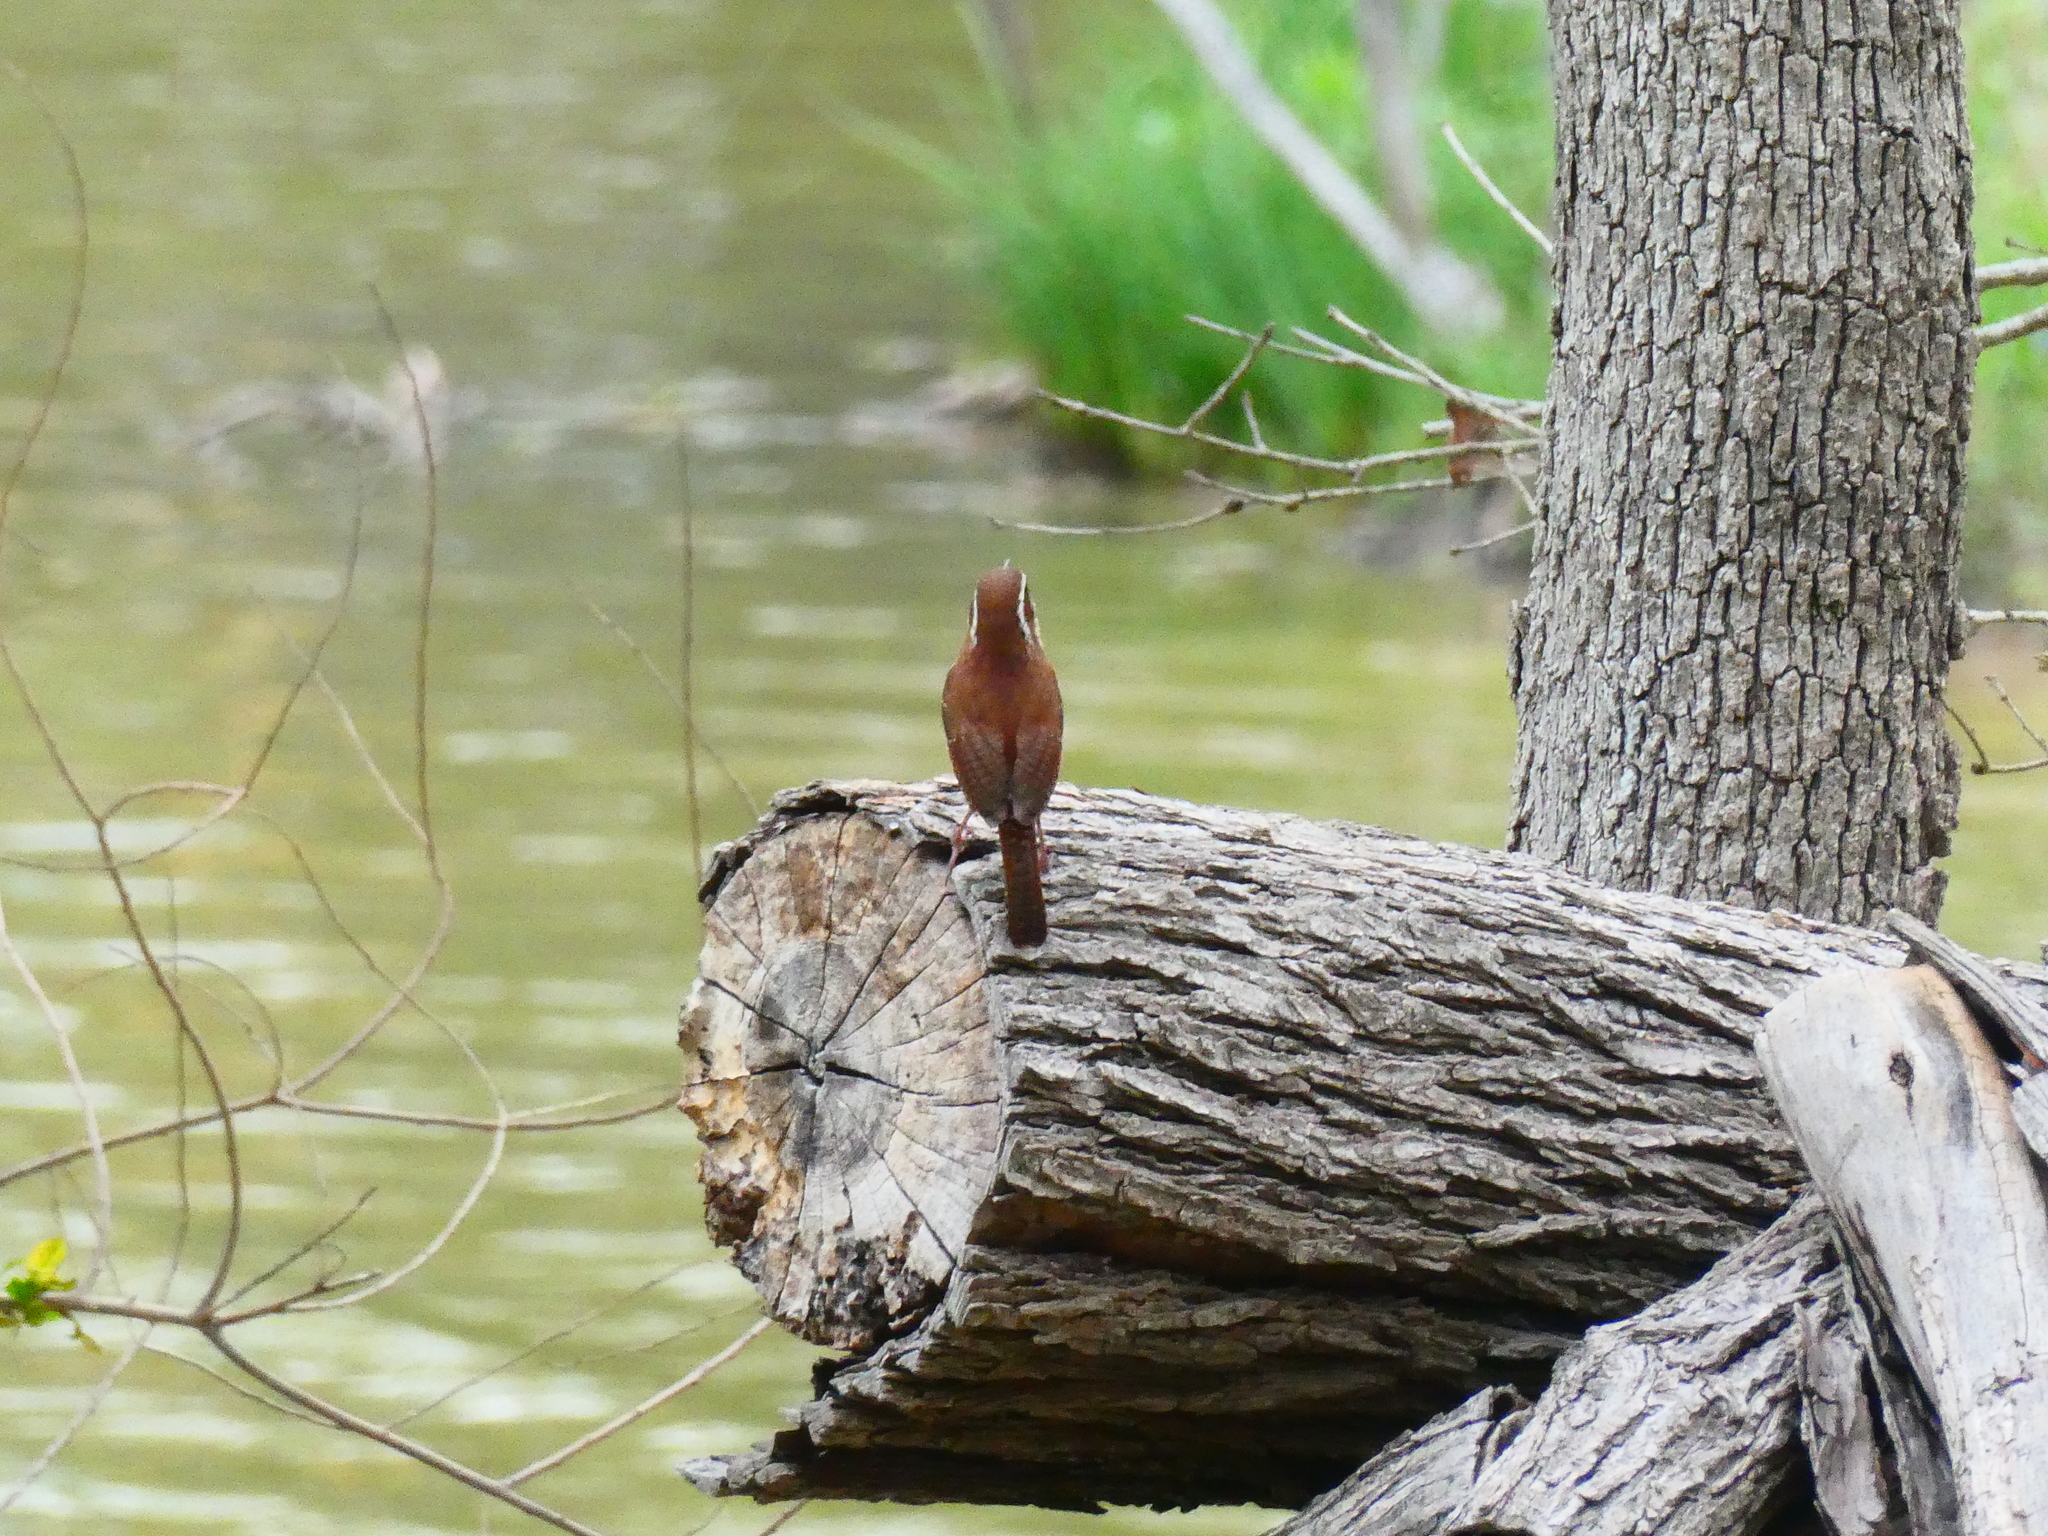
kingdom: Animalia
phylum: Chordata
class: Aves
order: Passeriformes
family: Troglodytidae
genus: Thryothorus
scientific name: Thryothorus ludovicianus
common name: Carolina wren
